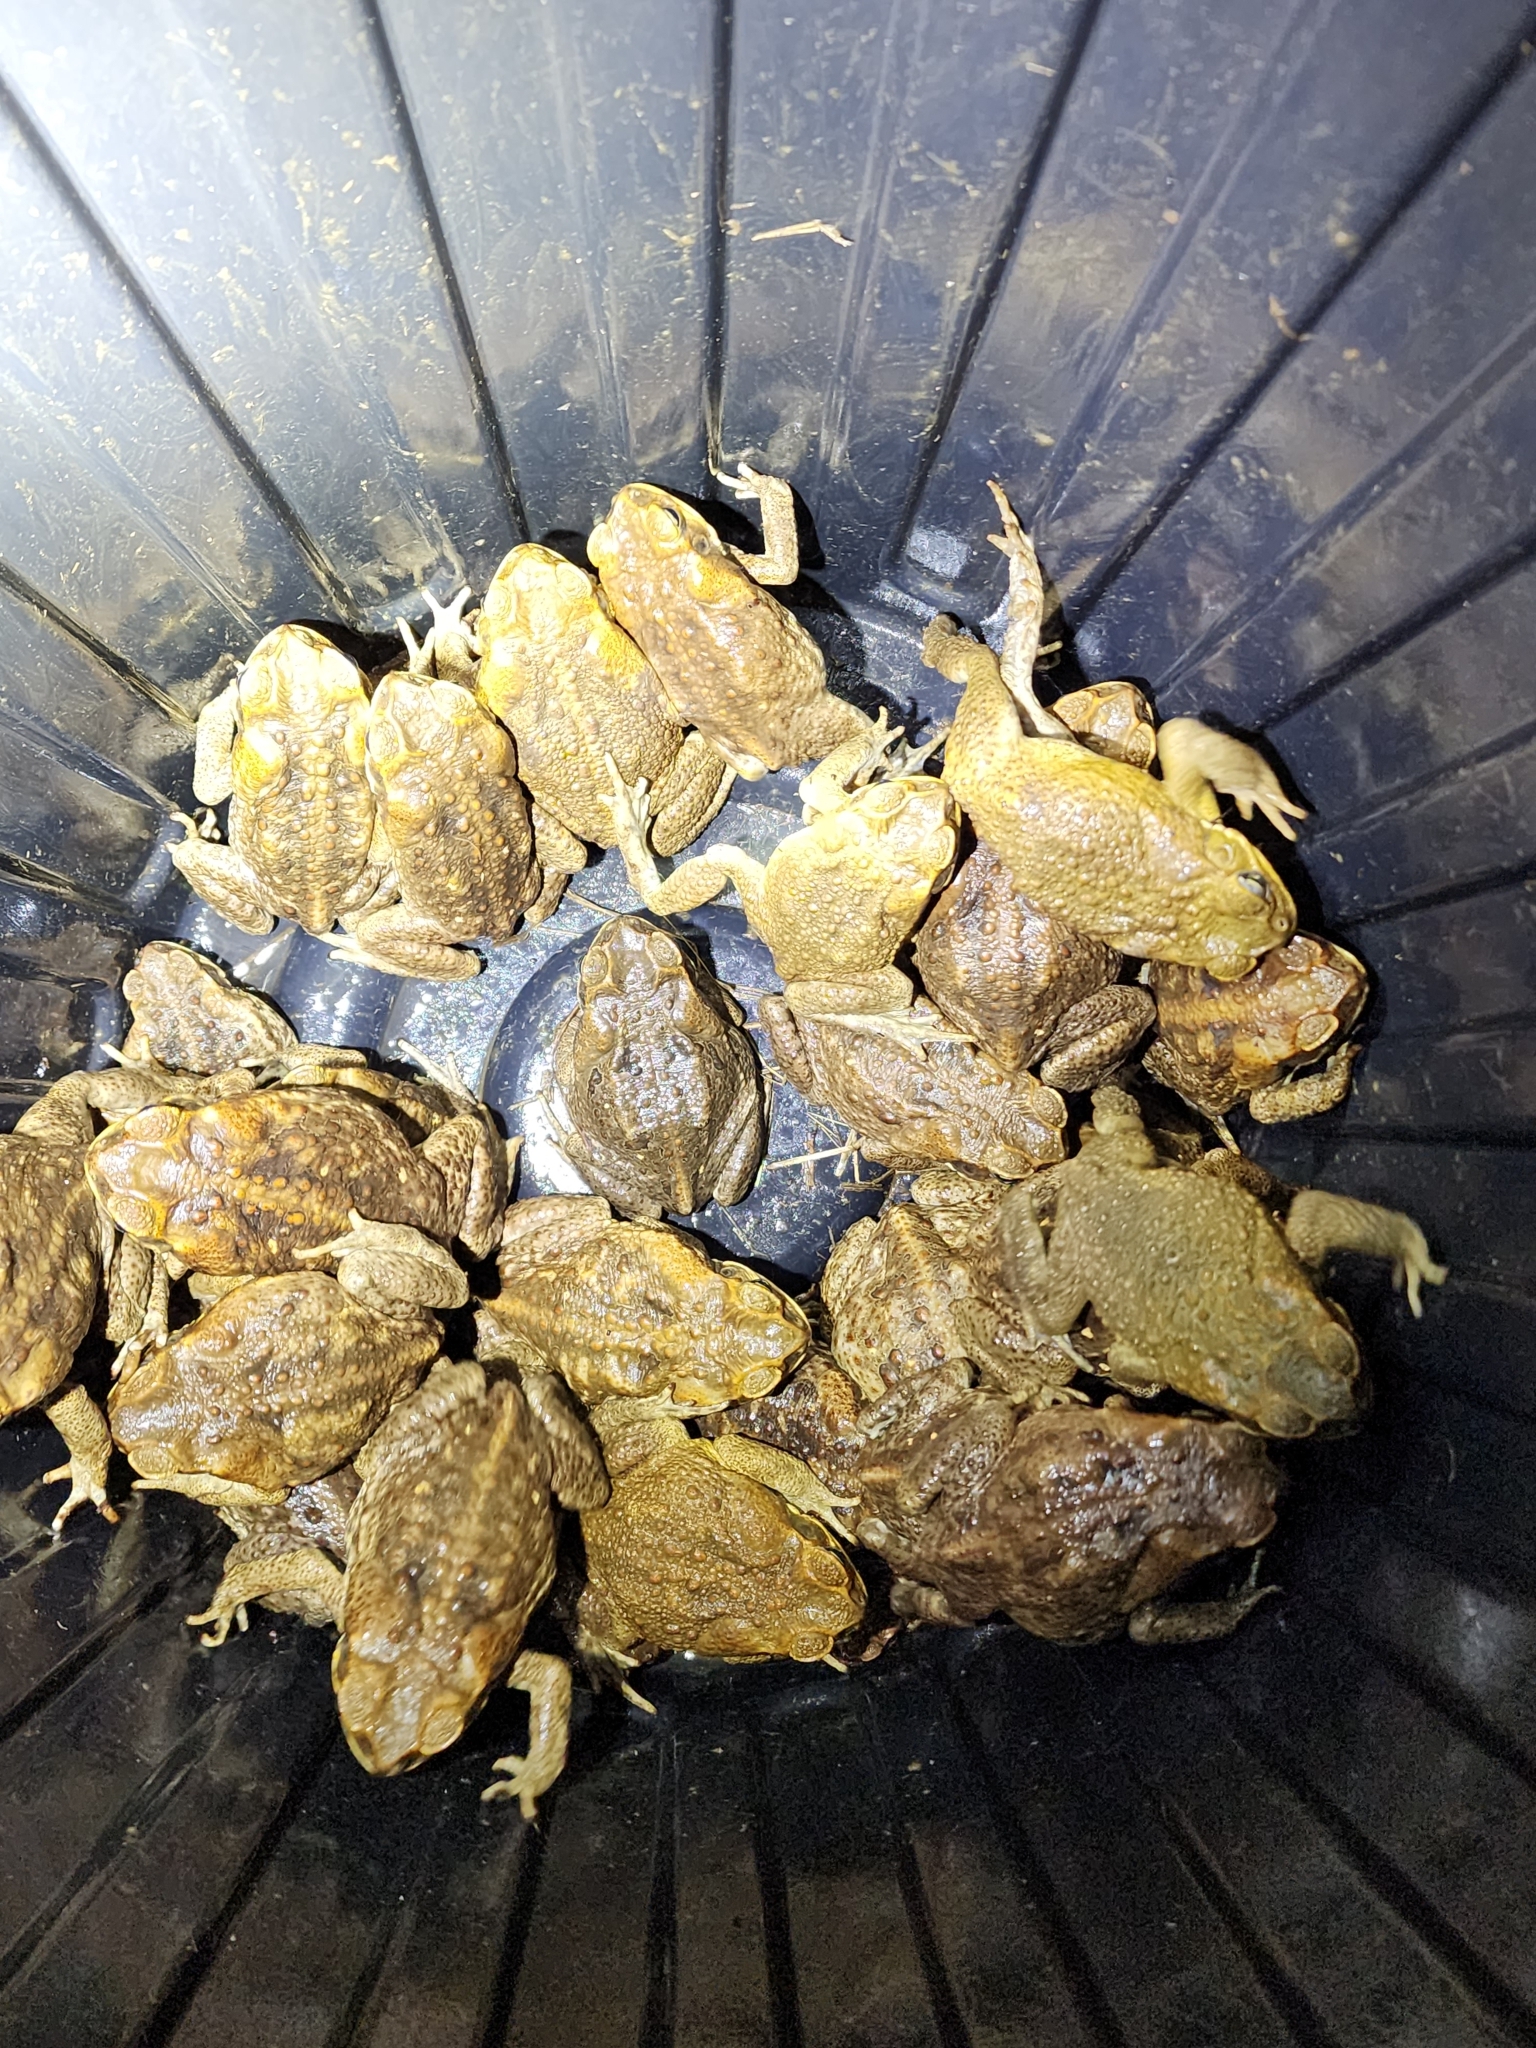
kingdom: Animalia
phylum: Chordata
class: Amphibia
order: Anura
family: Bufonidae
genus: Rhinella
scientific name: Rhinella marina
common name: Cane toad
